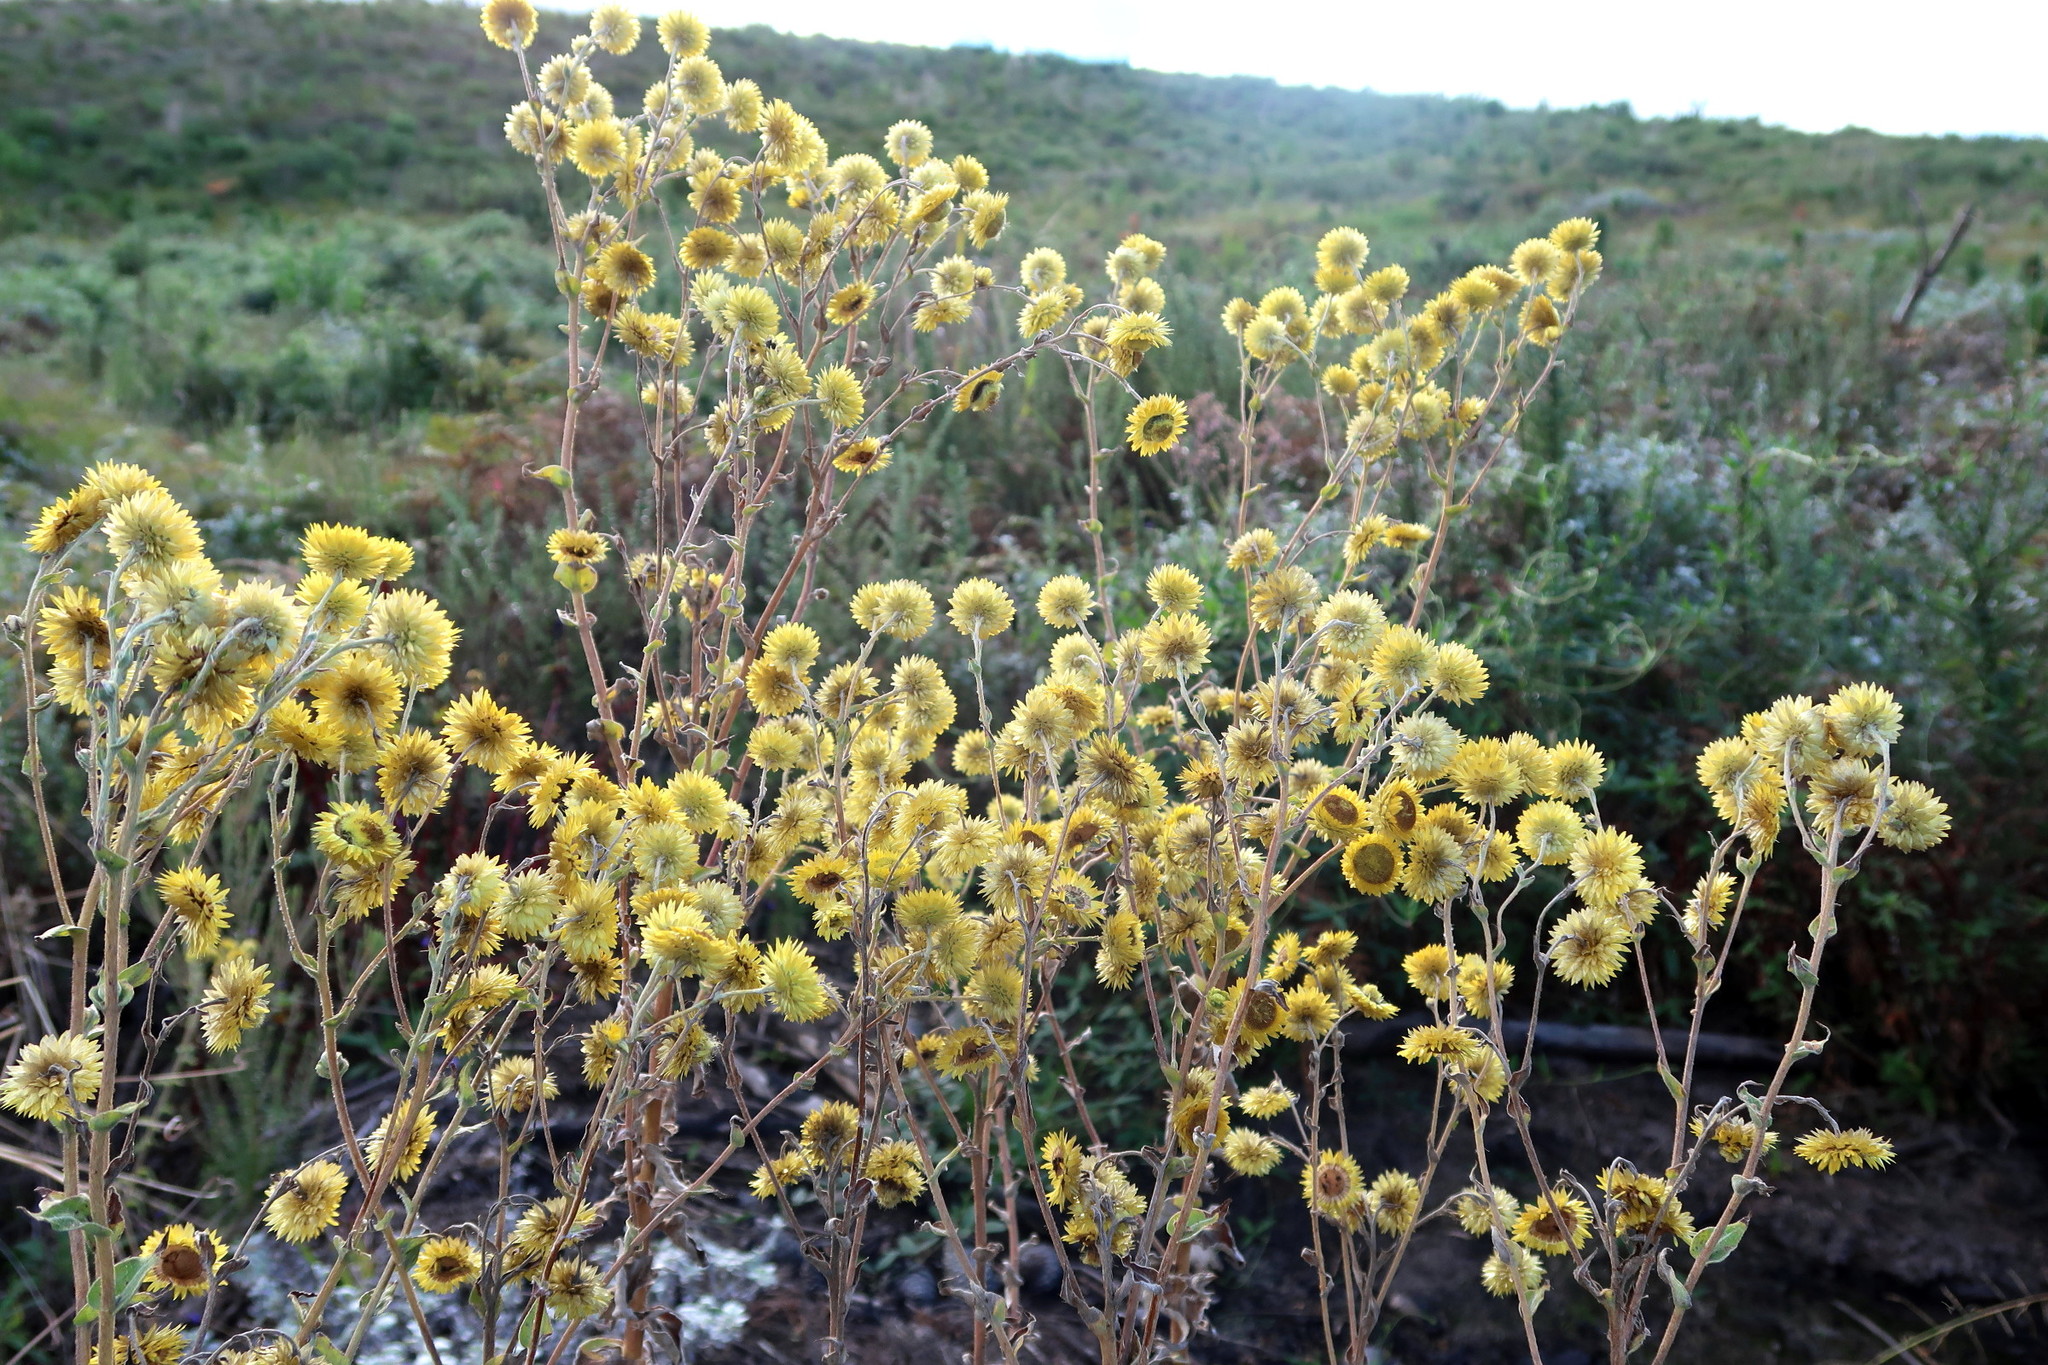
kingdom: Plantae
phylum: Tracheophyta
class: Magnoliopsida
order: Asterales
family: Asteraceae
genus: Helichrysum
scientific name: Helichrysum foetidum
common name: Stinking everlasting
